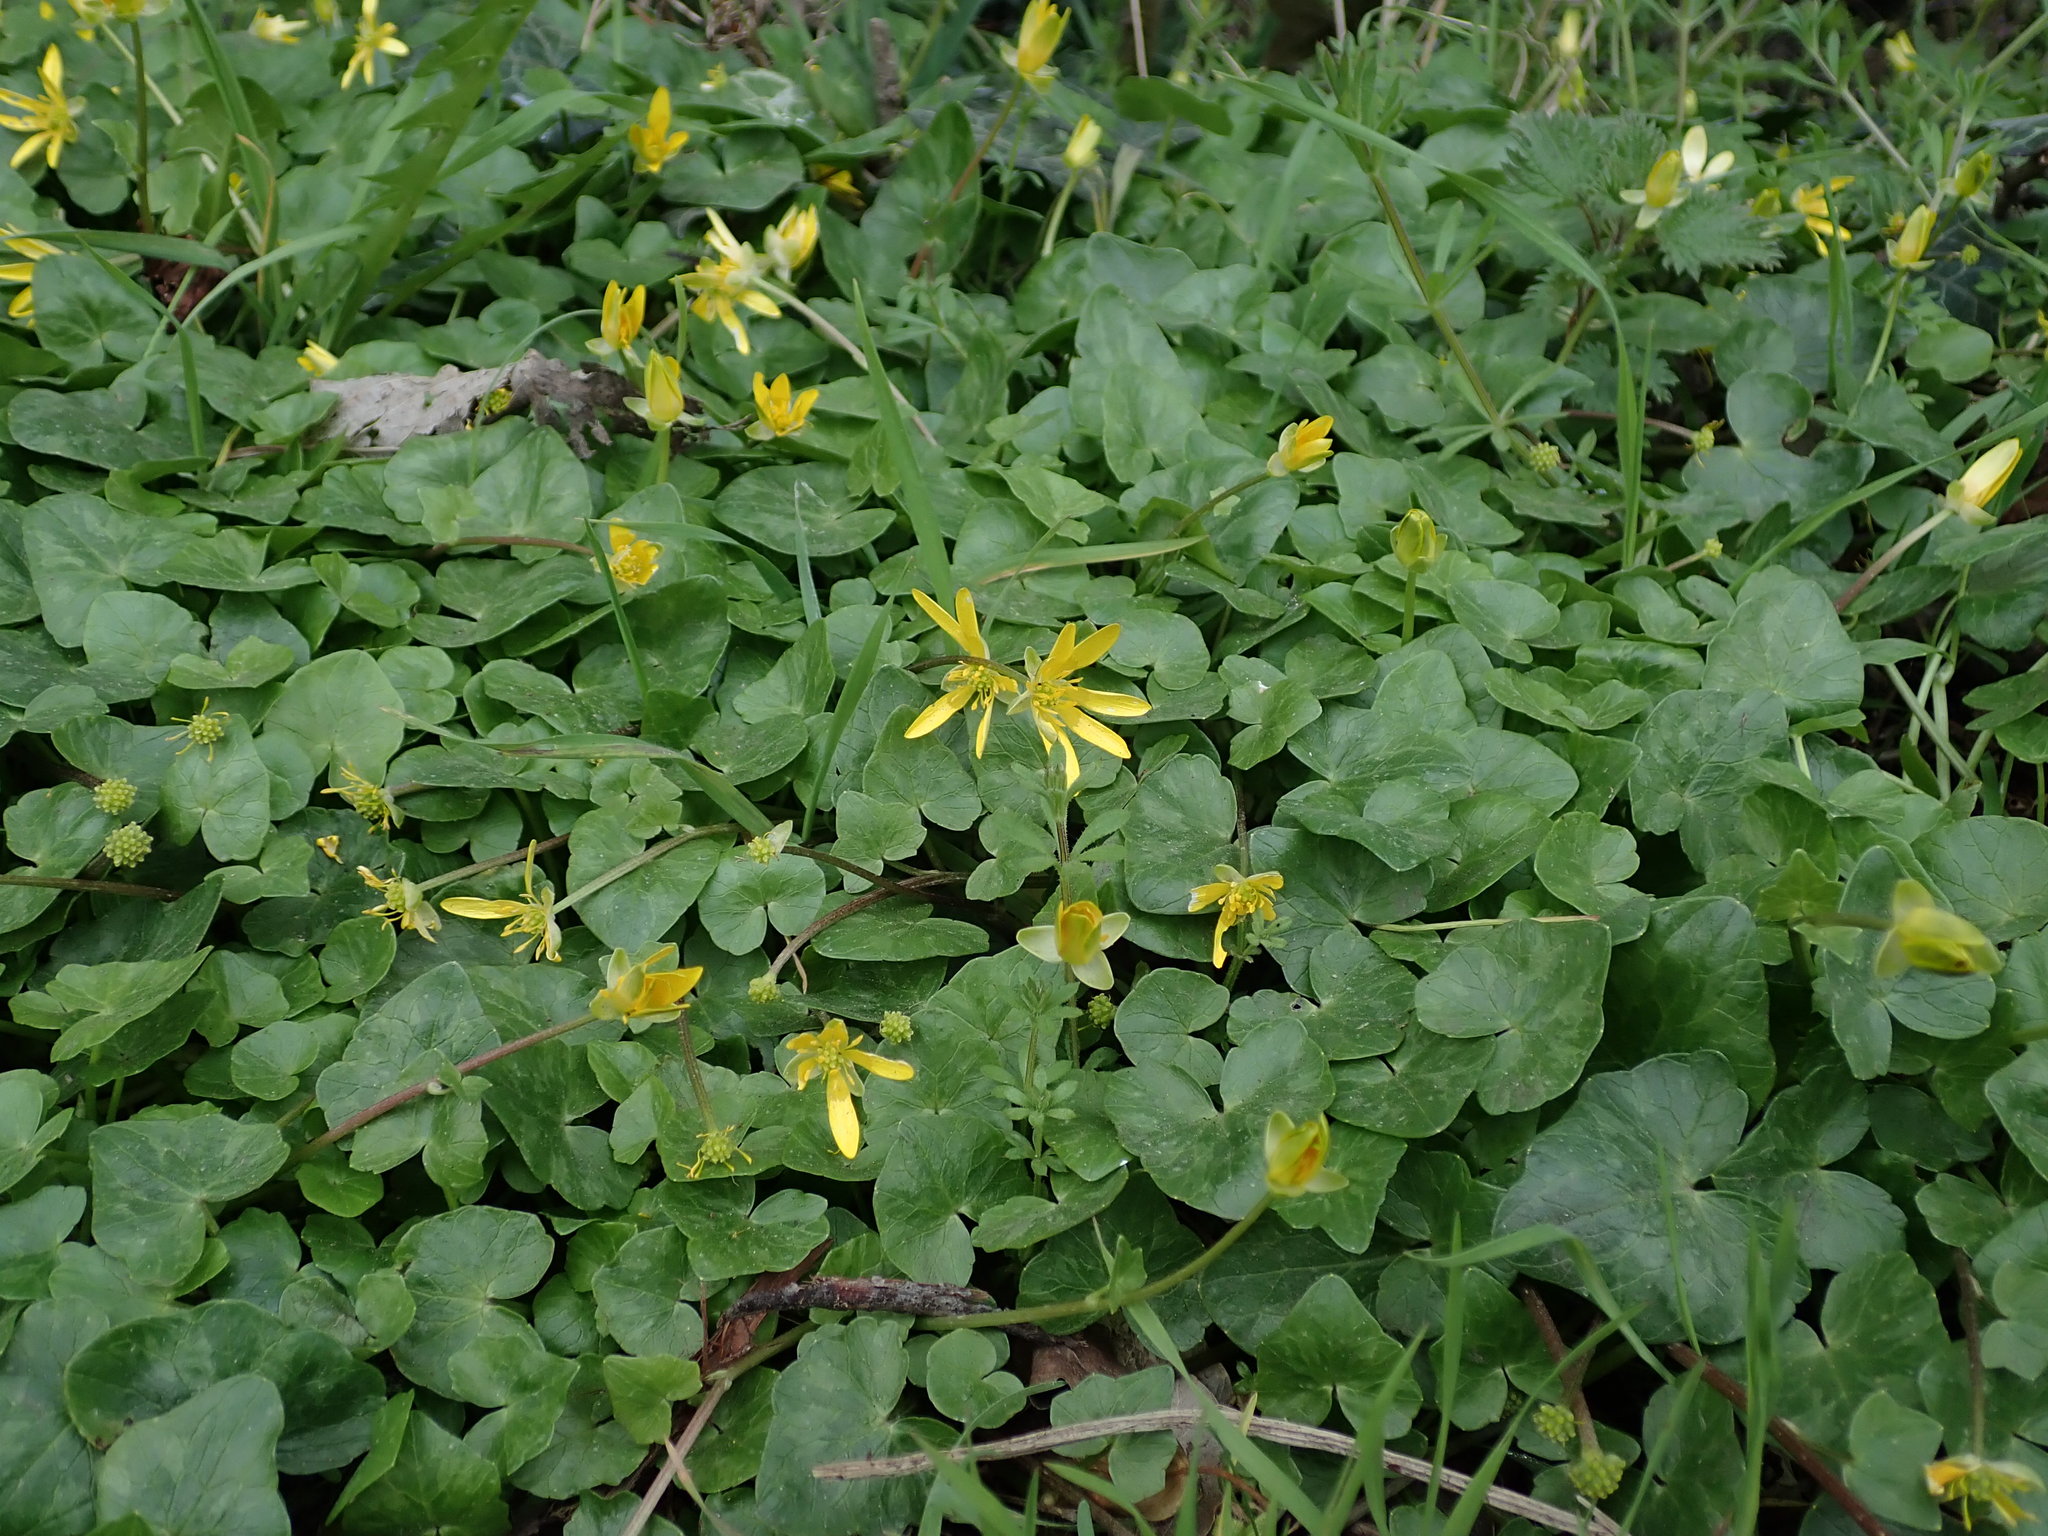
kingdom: Plantae
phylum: Tracheophyta
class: Magnoliopsida
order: Ranunculales
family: Ranunculaceae
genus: Ficaria
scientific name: Ficaria verna
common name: Lesser celandine
